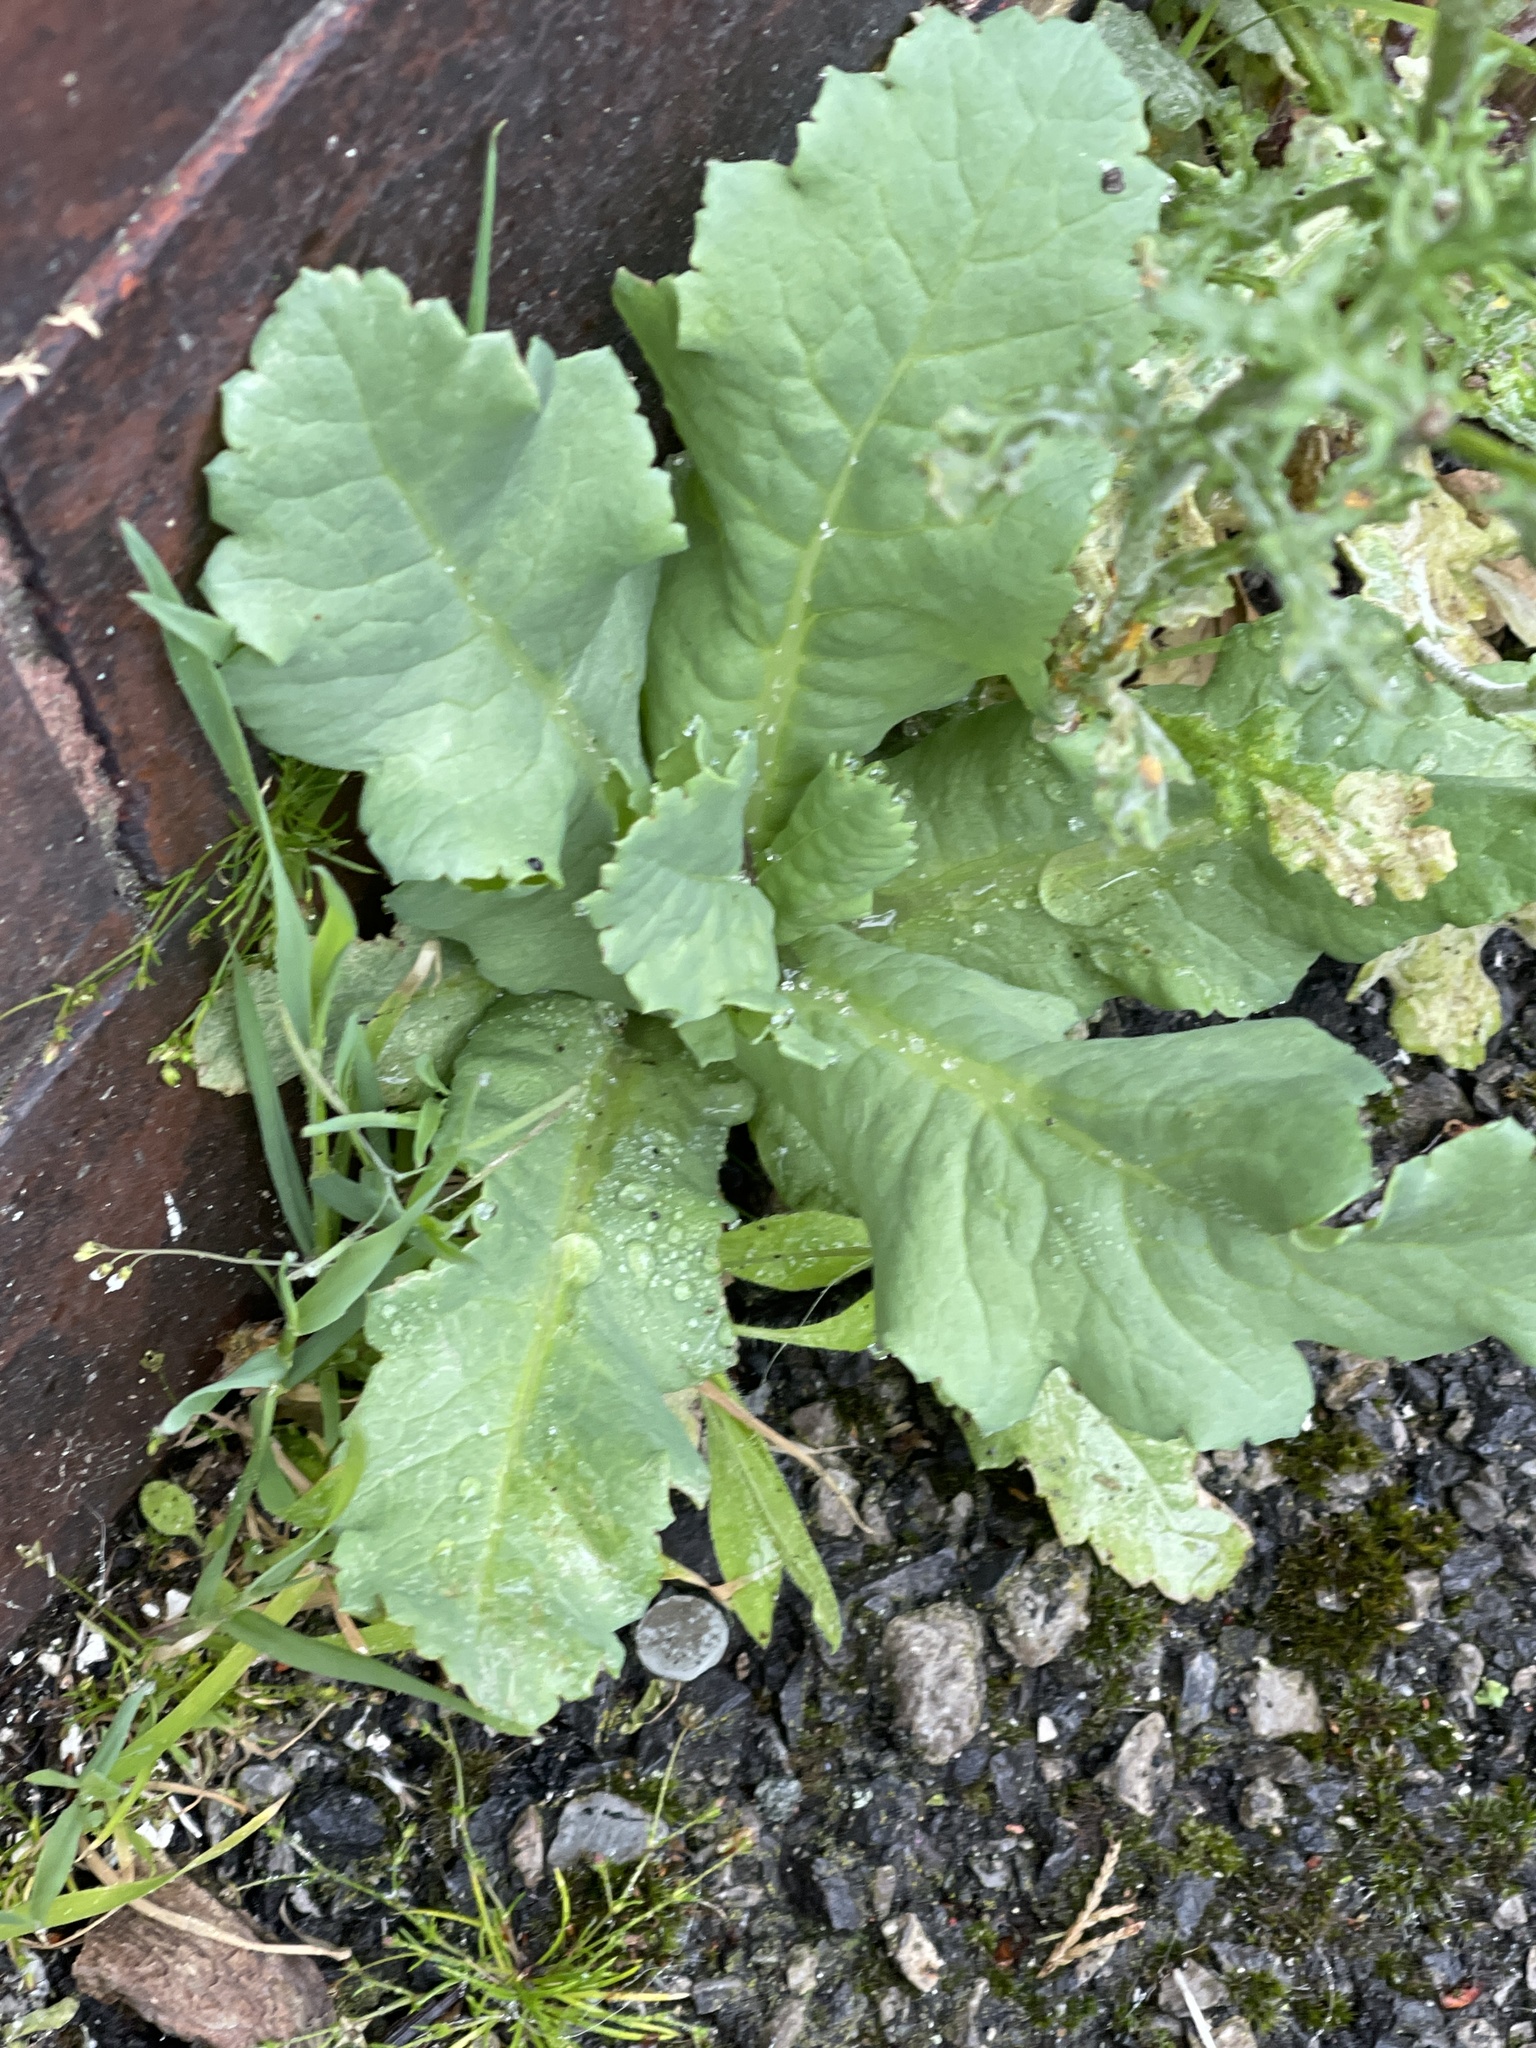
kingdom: Plantae
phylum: Tracheophyta
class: Magnoliopsida
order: Ranunculales
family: Papaveraceae
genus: Papaver
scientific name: Papaver somniferum
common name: Opium poppy
